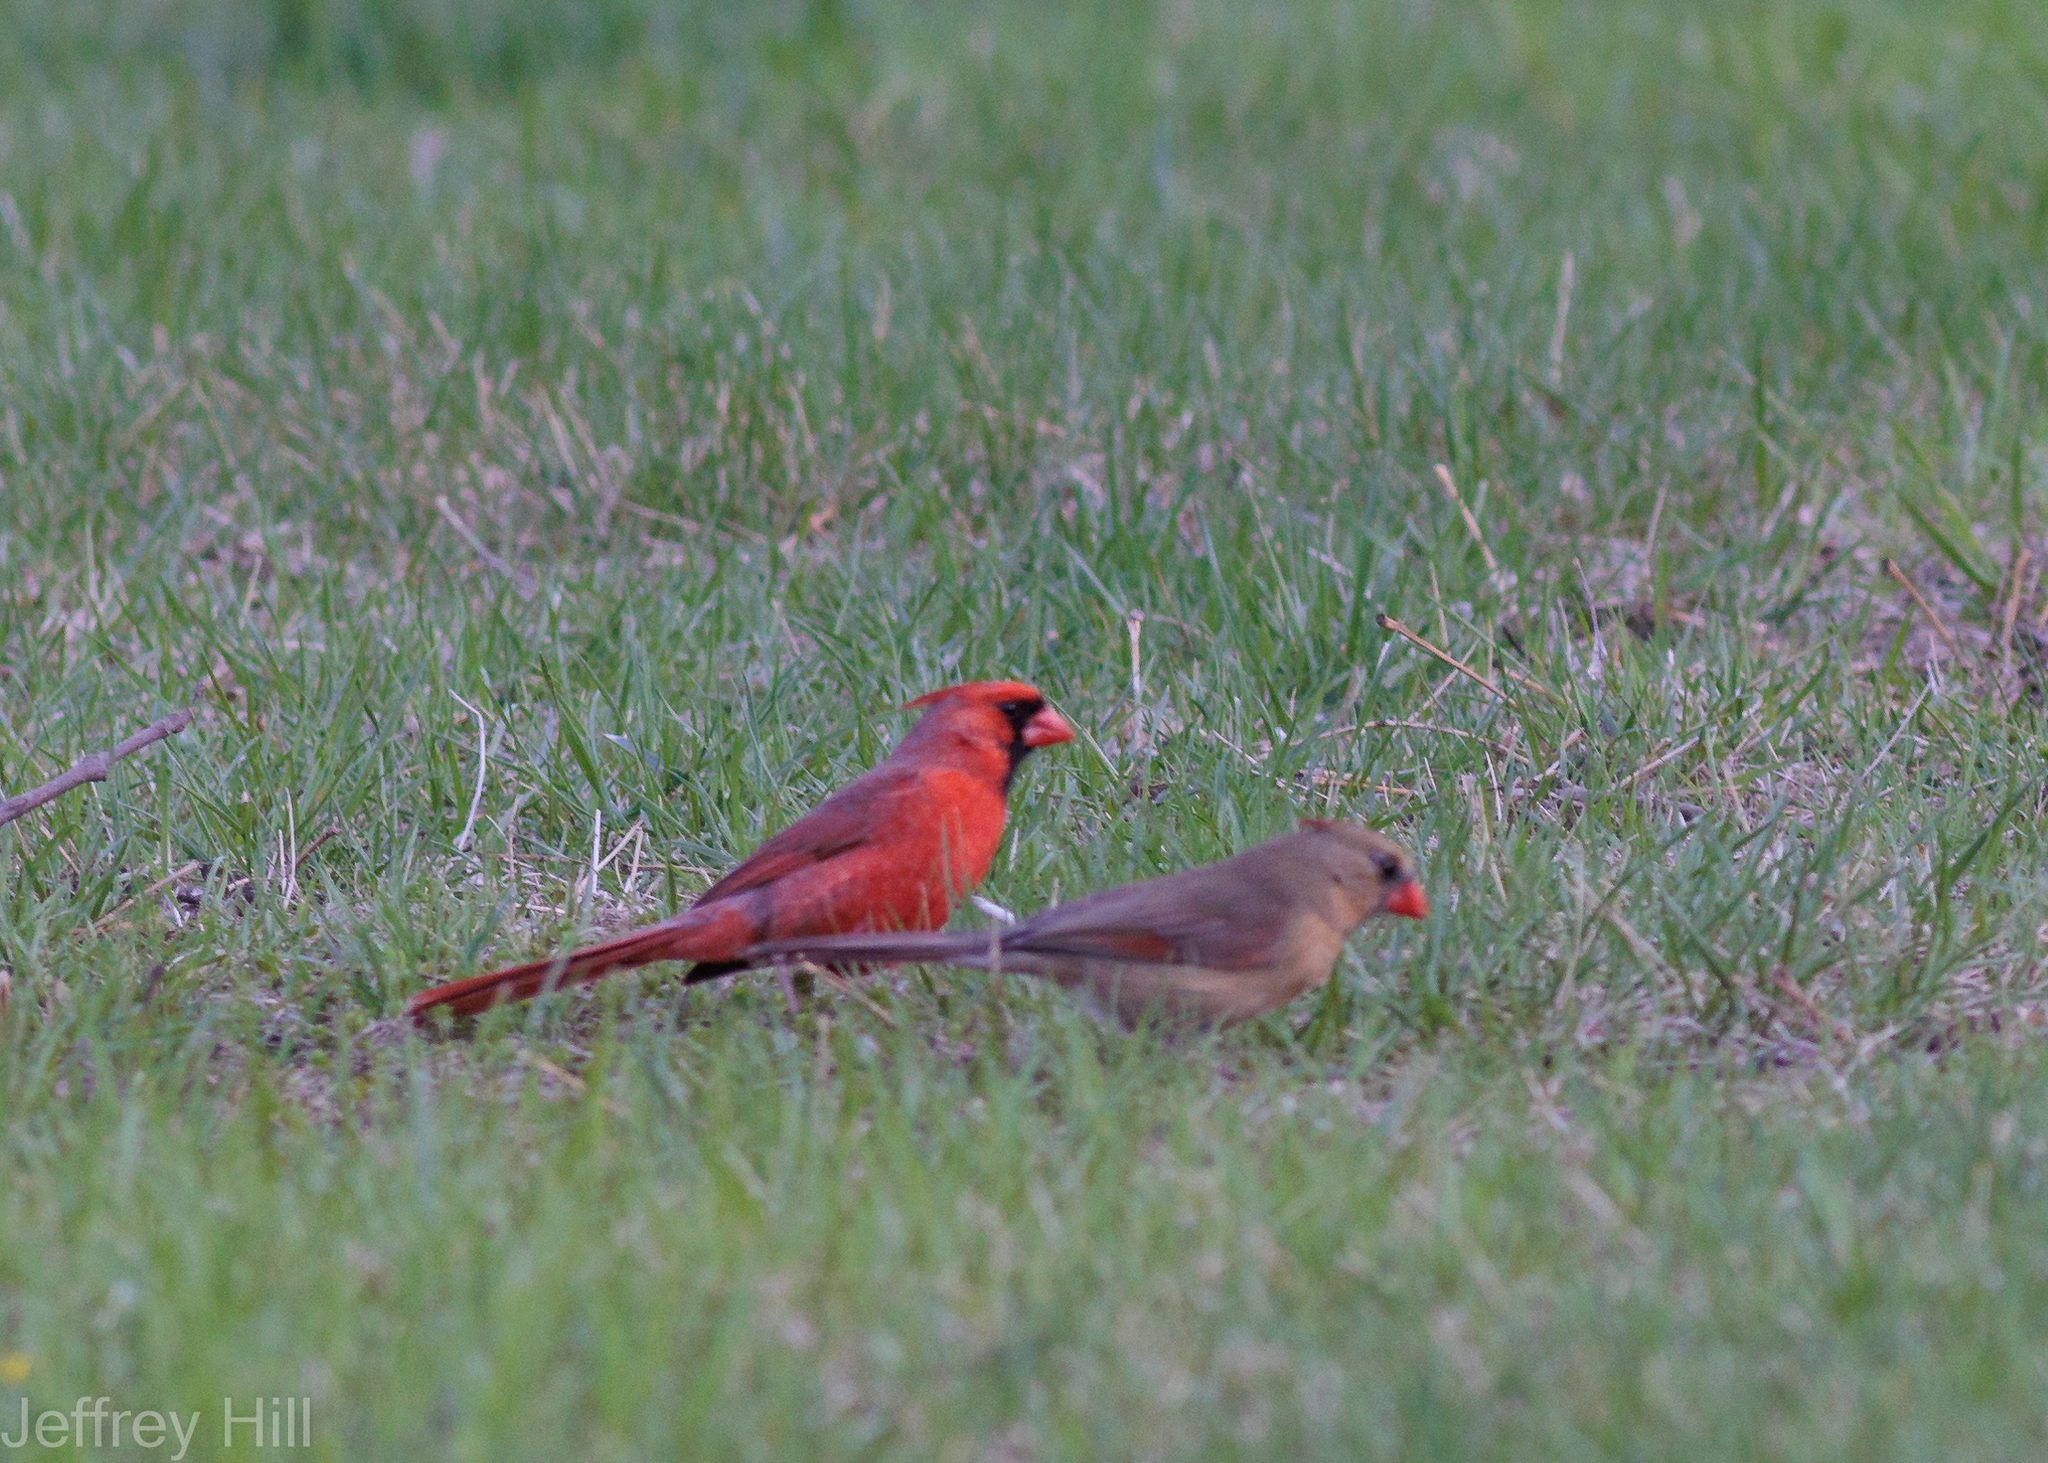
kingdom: Animalia
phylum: Chordata
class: Aves
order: Passeriformes
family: Cardinalidae
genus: Cardinalis
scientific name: Cardinalis cardinalis
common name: Northern cardinal
